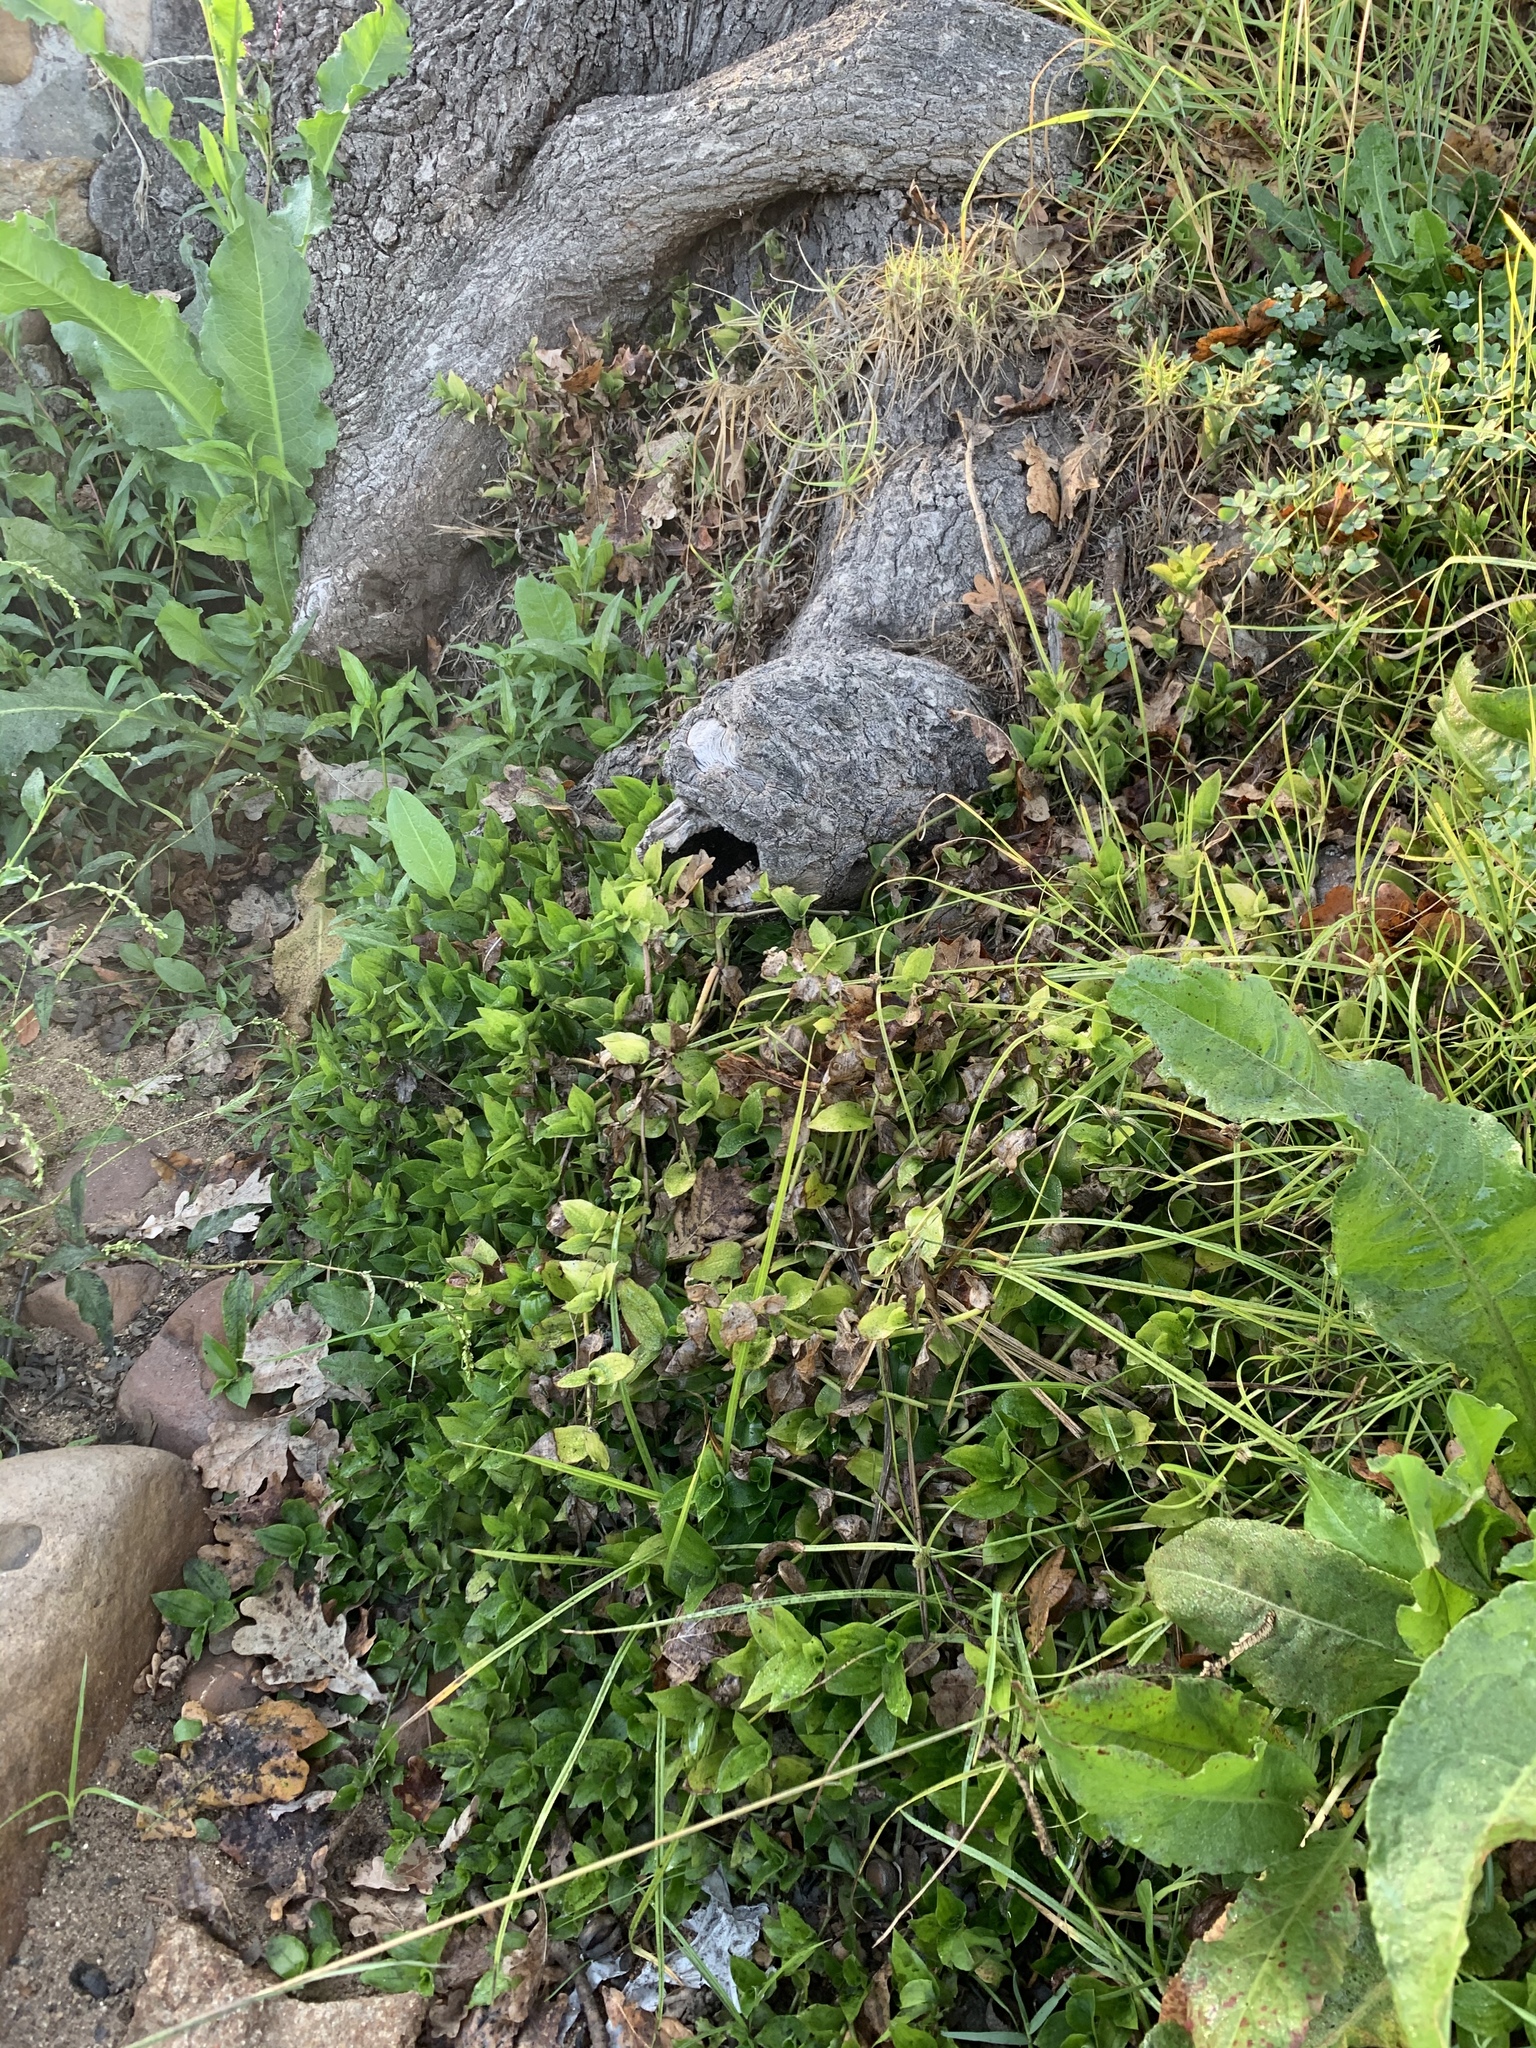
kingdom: Plantae
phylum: Tracheophyta
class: Liliopsida
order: Commelinales
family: Commelinaceae
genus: Tradescantia
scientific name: Tradescantia fluminensis
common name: Wandering-jew
